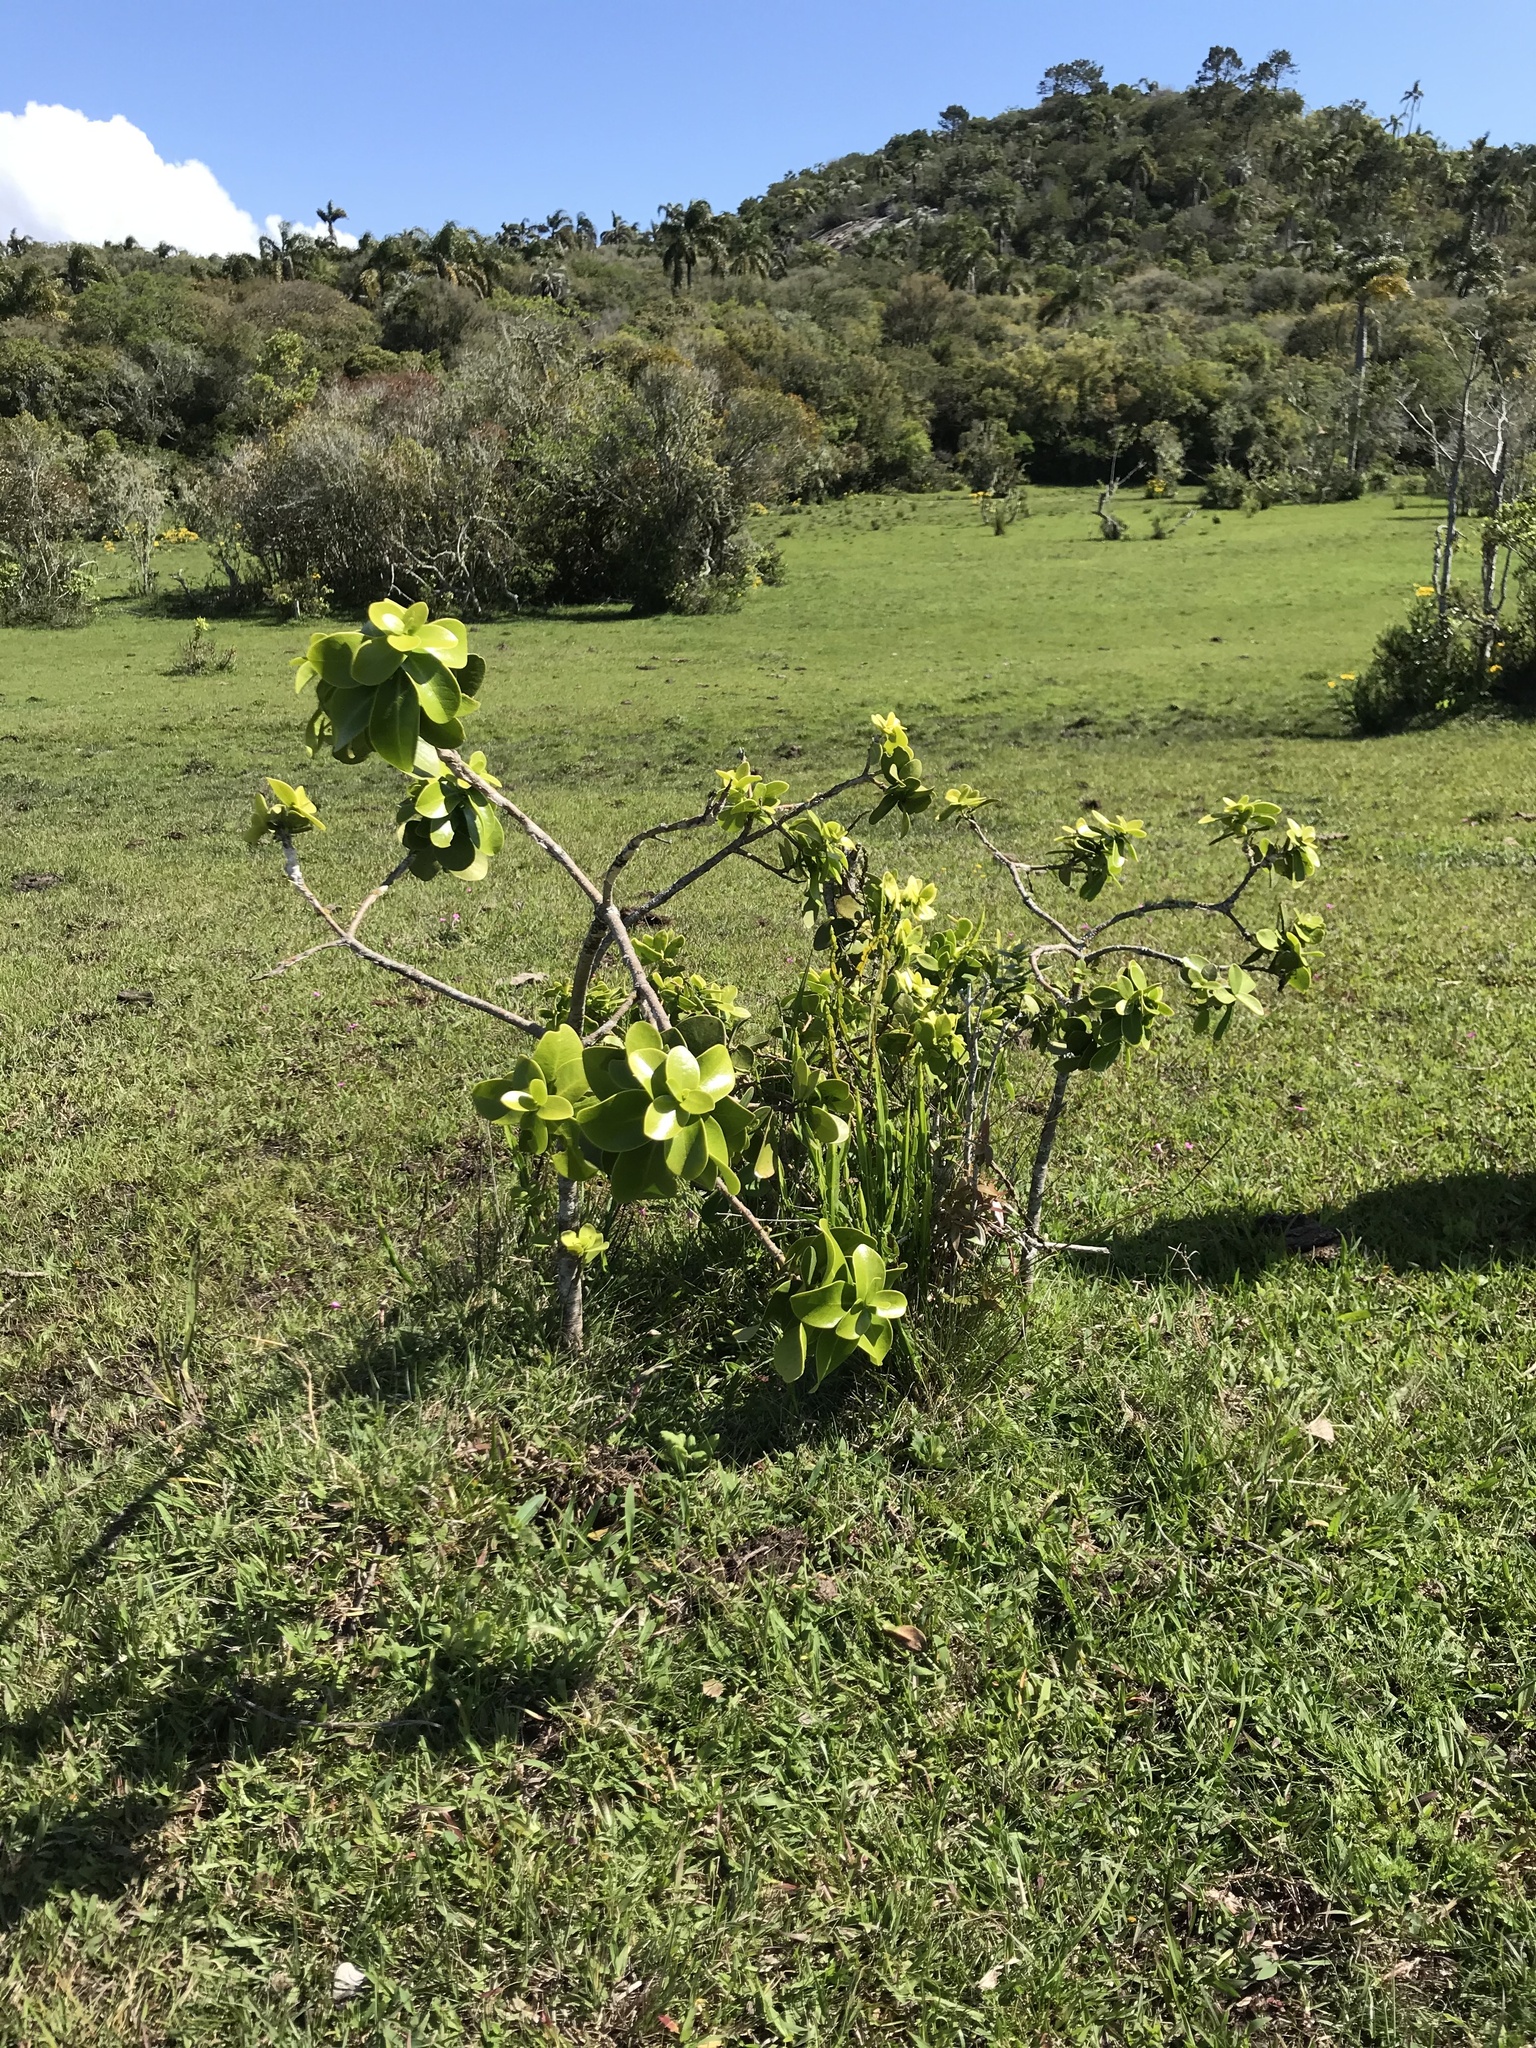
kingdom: Plantae
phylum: Tracheophyta
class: Magnoliopsida
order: Malvales
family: Thymelaeaceae
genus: Daphnopsis
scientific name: Daphnopsis racemosa
